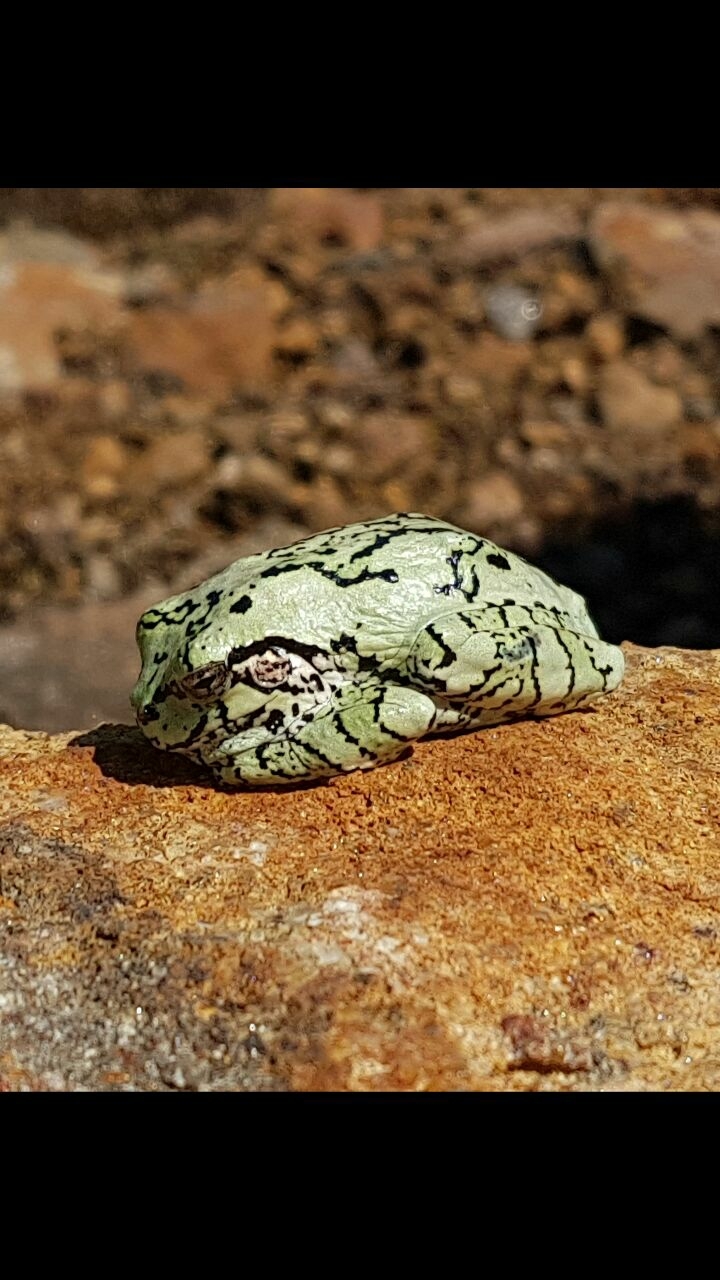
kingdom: Animalia
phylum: Chordata
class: Amphibia
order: Anura
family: Hylidae
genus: Dryophytes
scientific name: Dryophytes versicolor
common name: Gray treefrog
